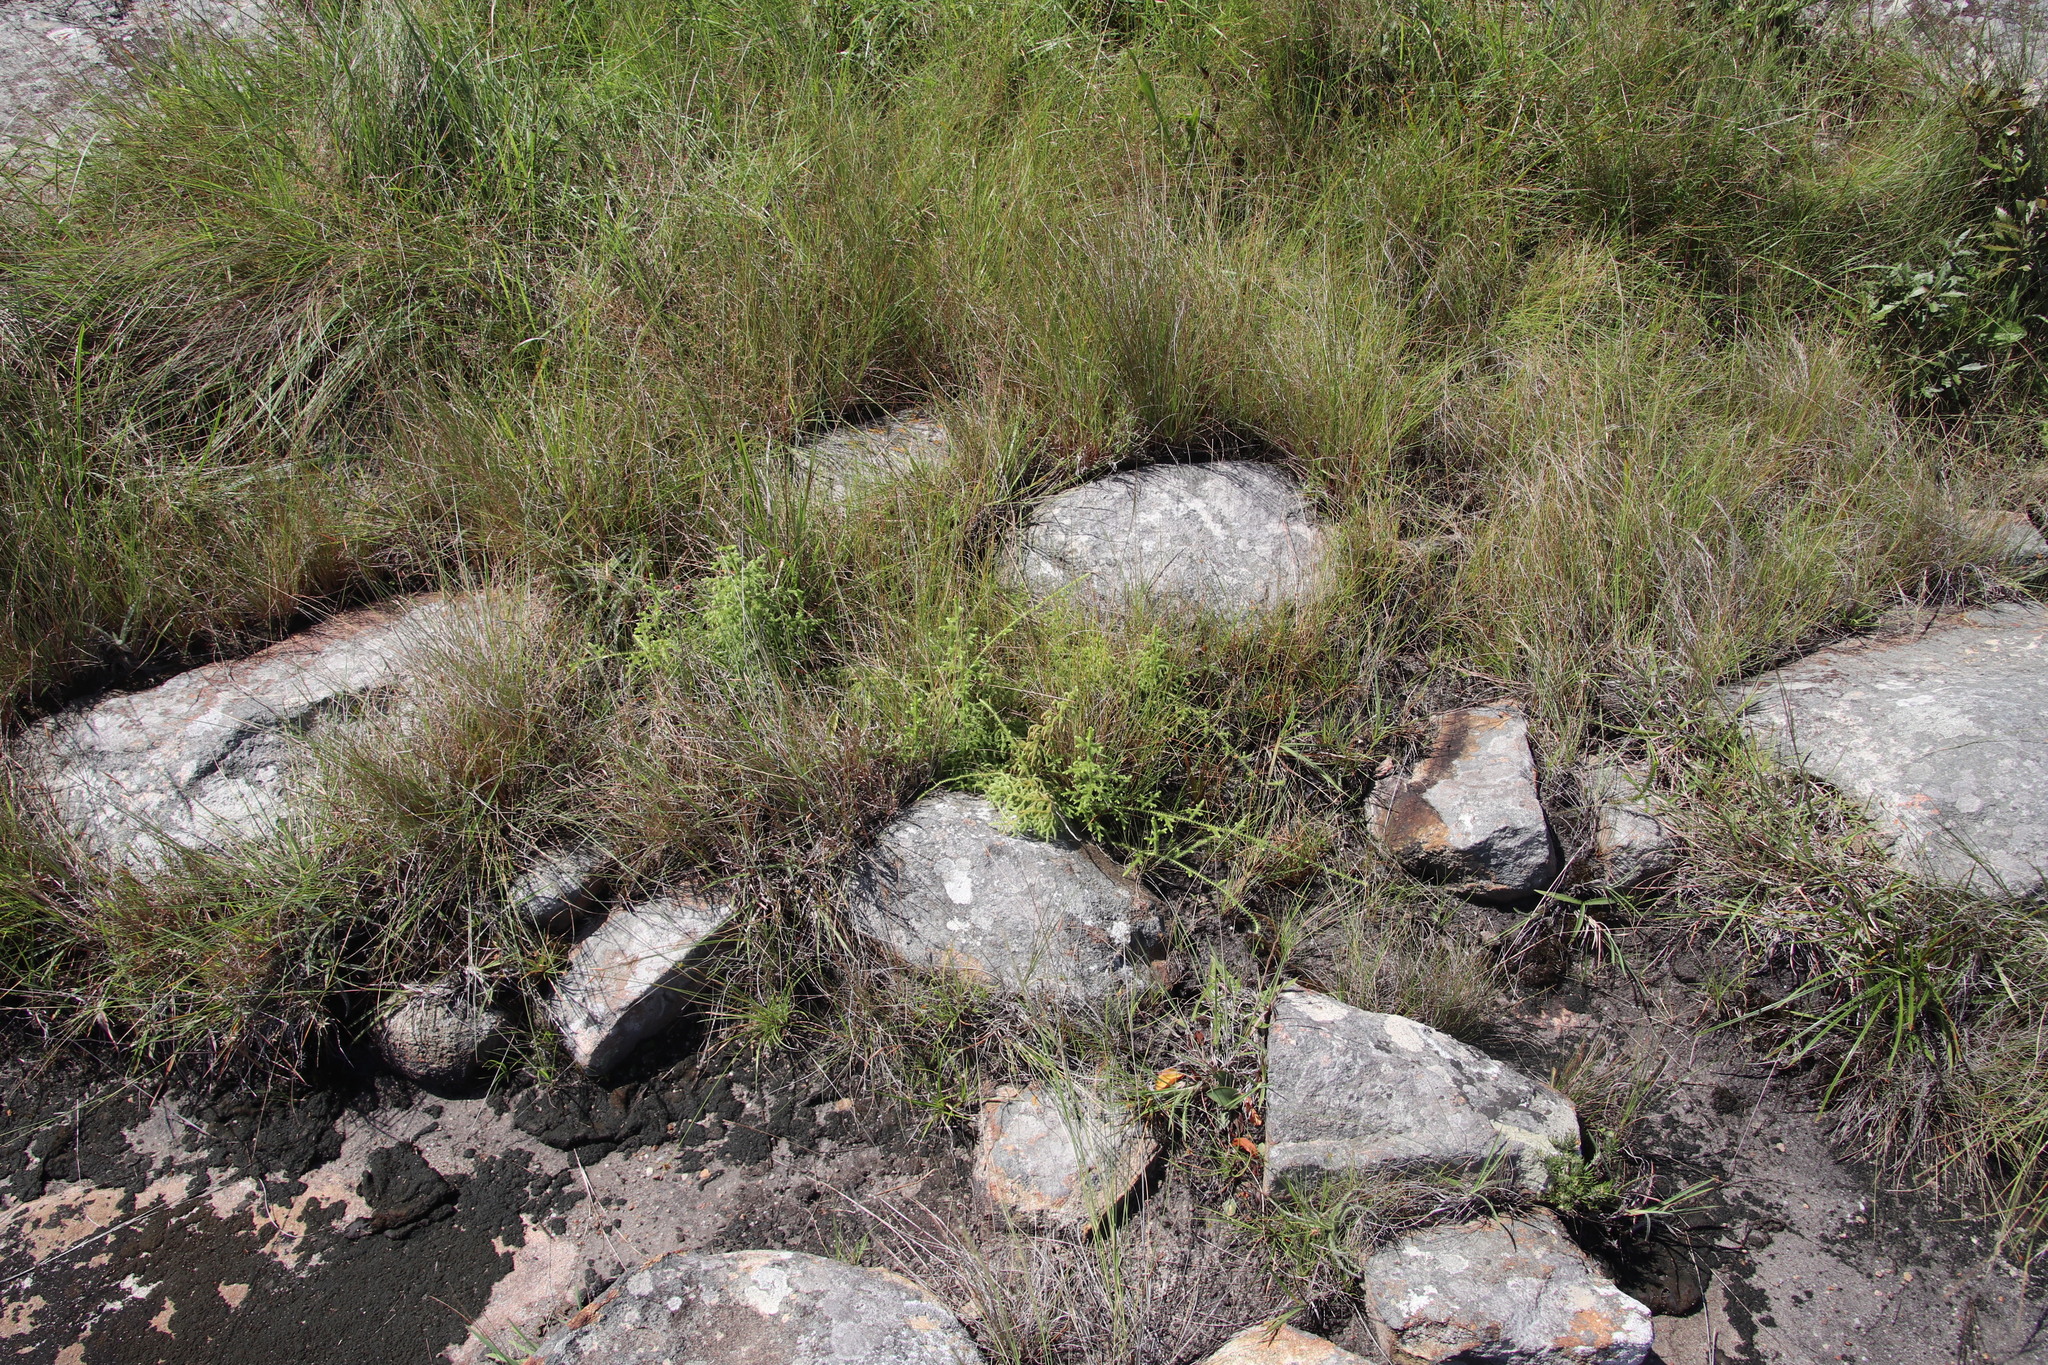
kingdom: Plantae
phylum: Tracheophyta
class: Lycopodiopsida
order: Lycopodiales
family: Lycopodiaceae
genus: Palhinhaea
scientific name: Palhinhaea cernua
